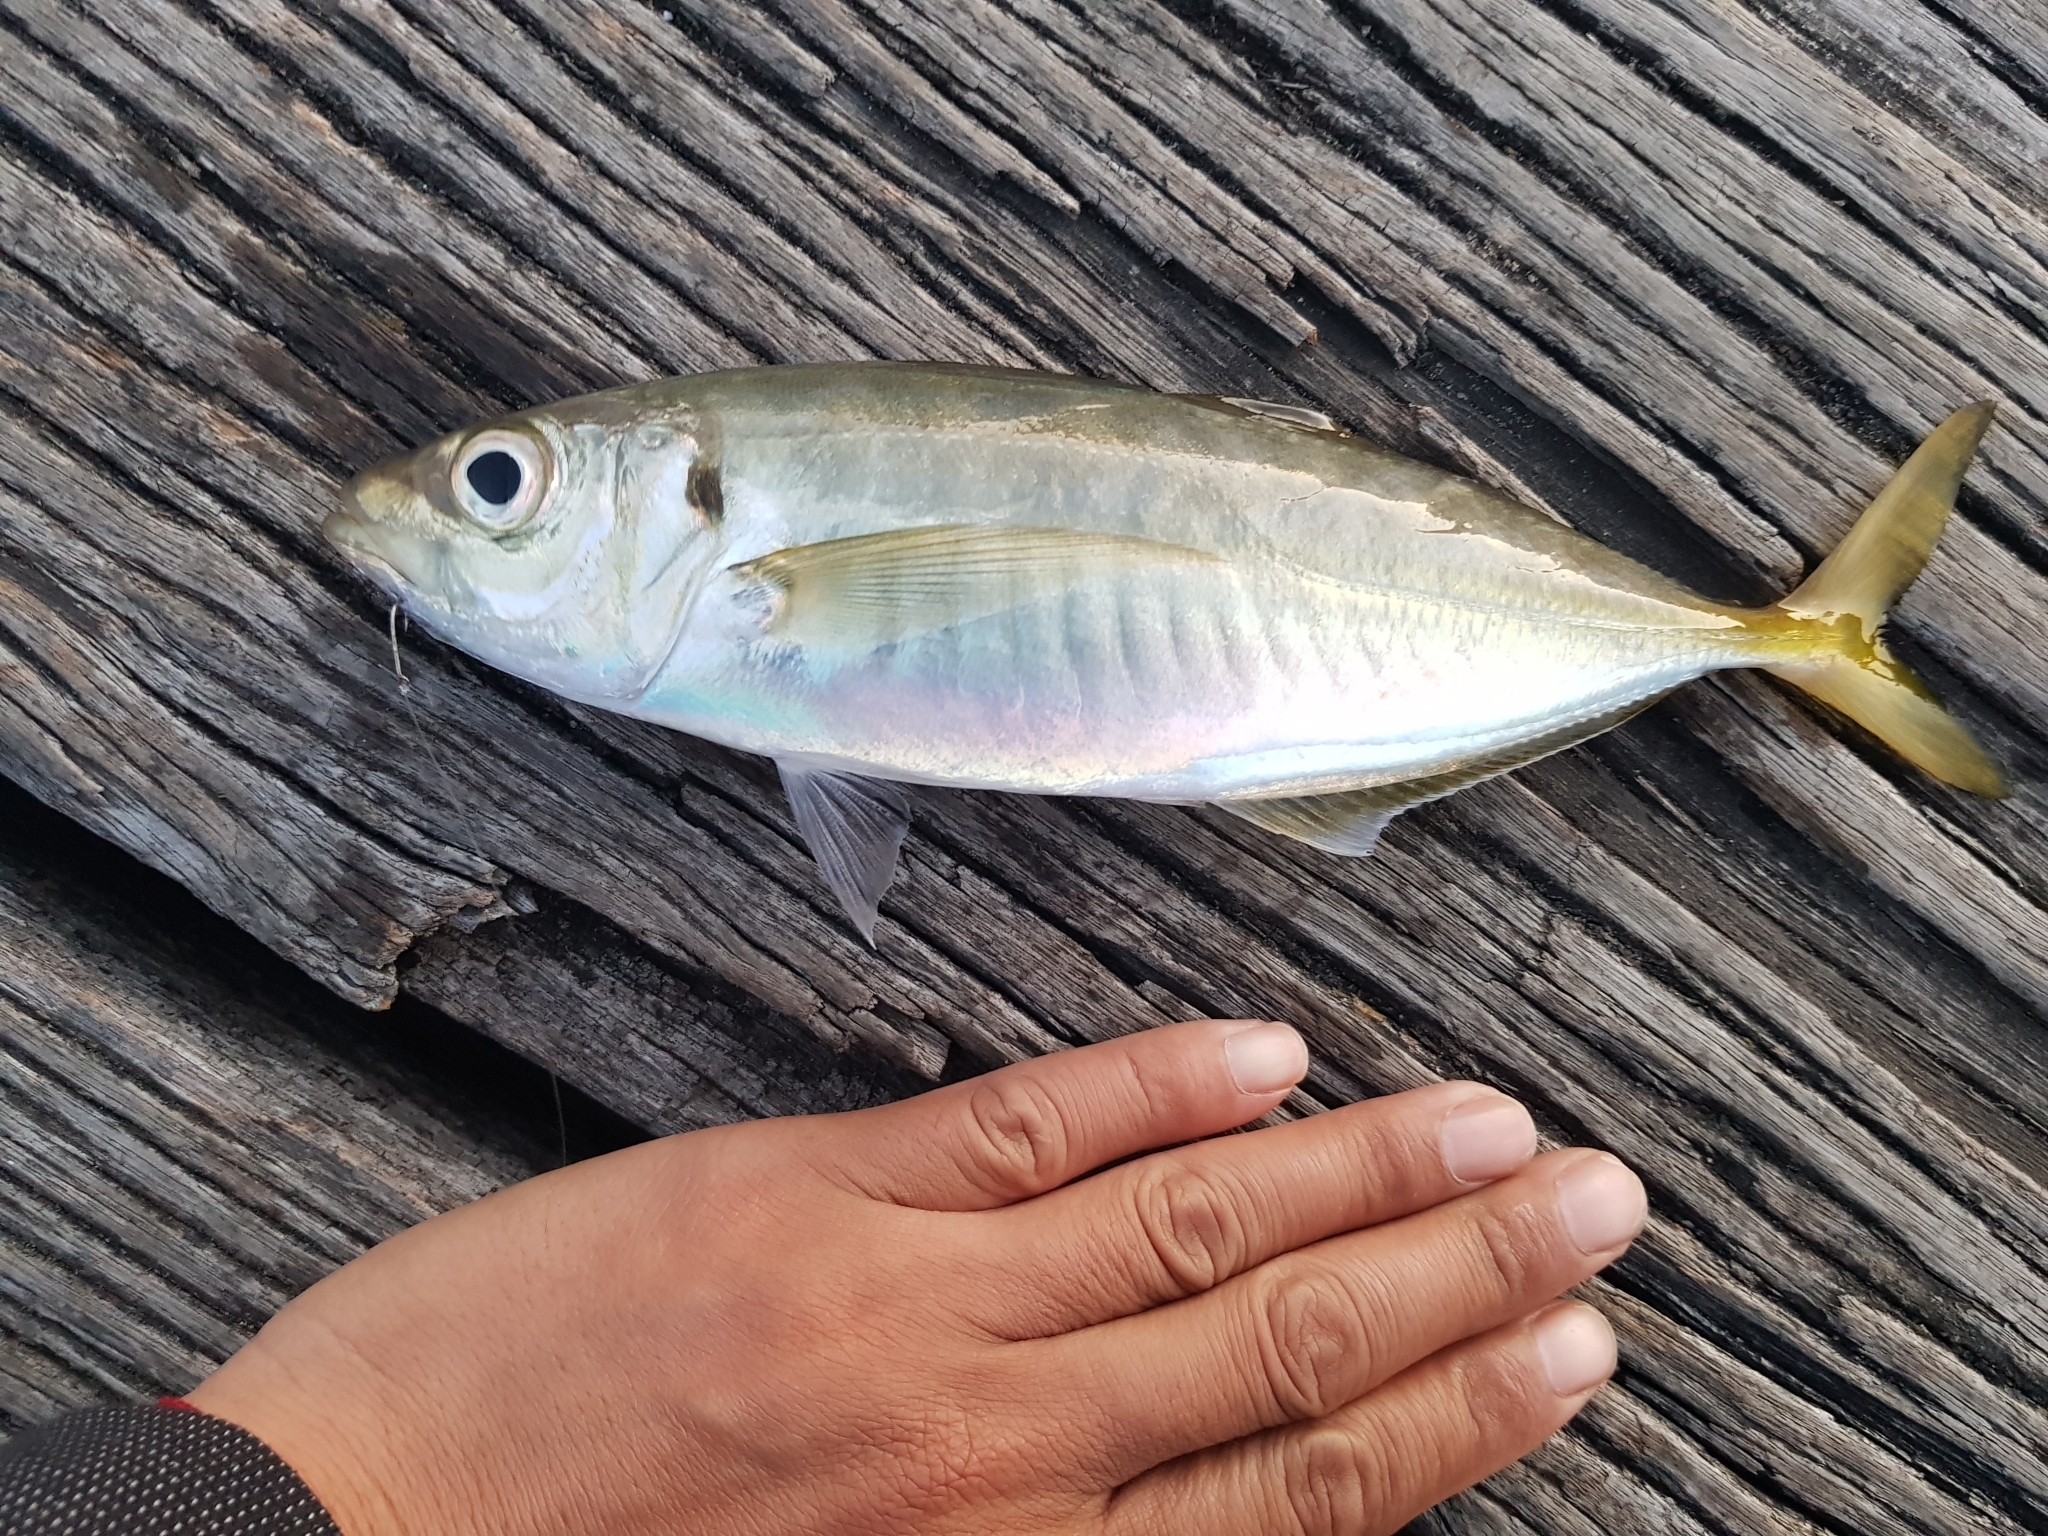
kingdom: Animalia
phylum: Chordata
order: Perciformes
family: Carangidae
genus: Trachurus
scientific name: Trachurus novaezelandiae
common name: Yellowtail horse mackerel
